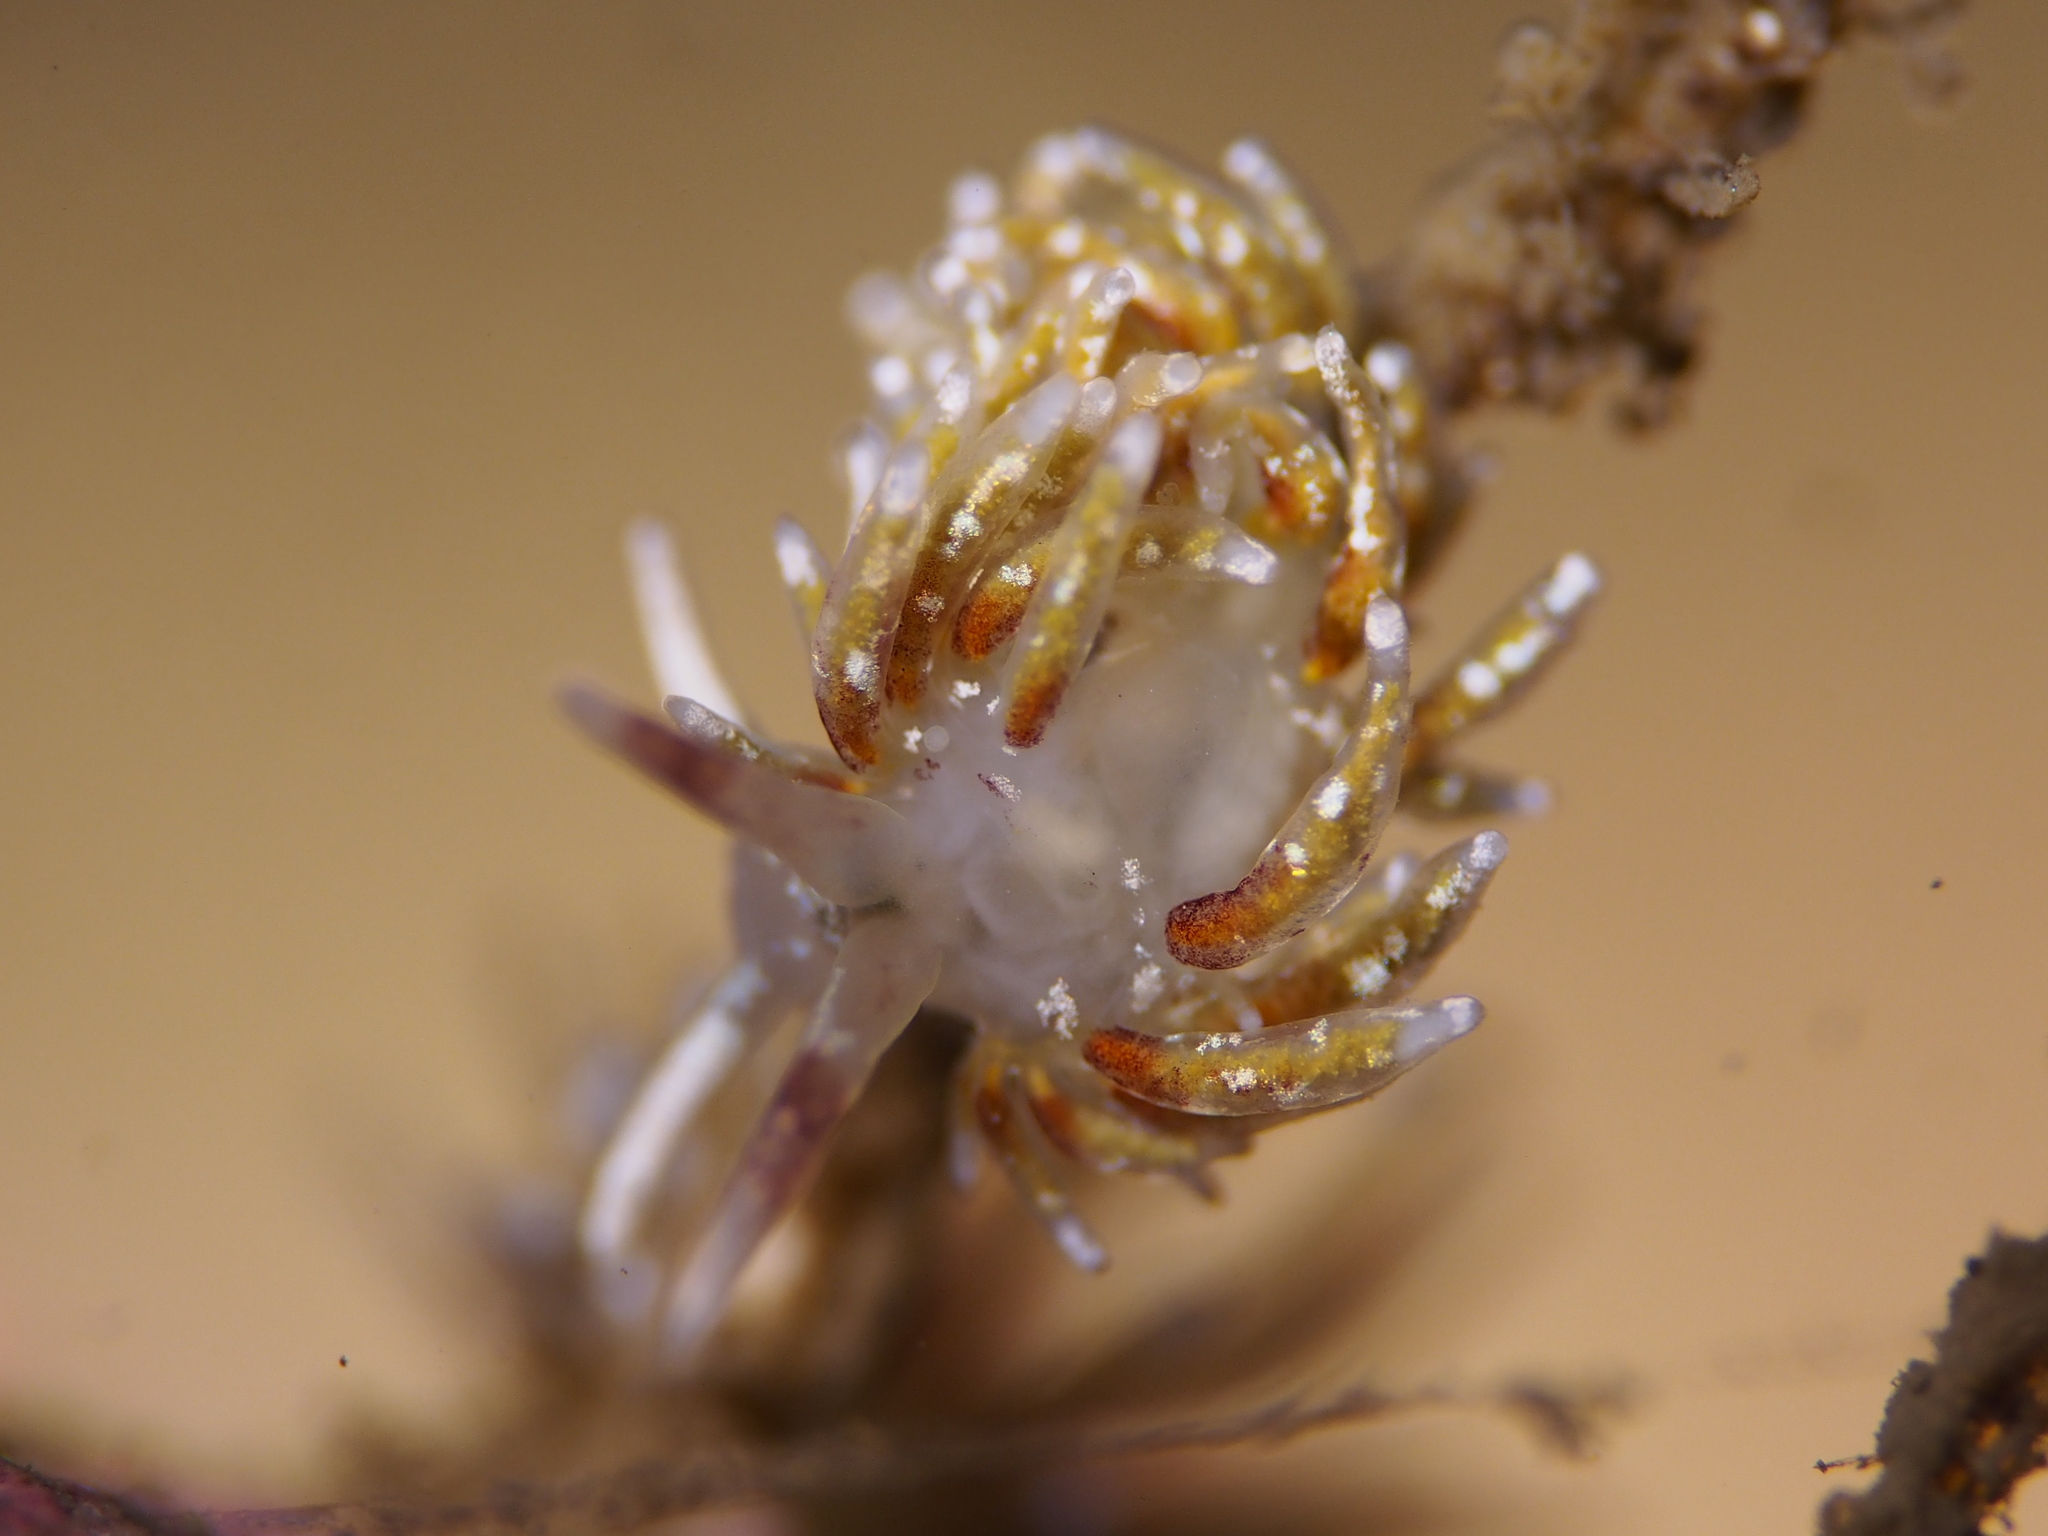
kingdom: Animalia
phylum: Mollusca
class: Gastropoda
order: Nudibranchia
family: Trinchesiidae
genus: Rubramoena
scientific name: Rubramoena rubescens
